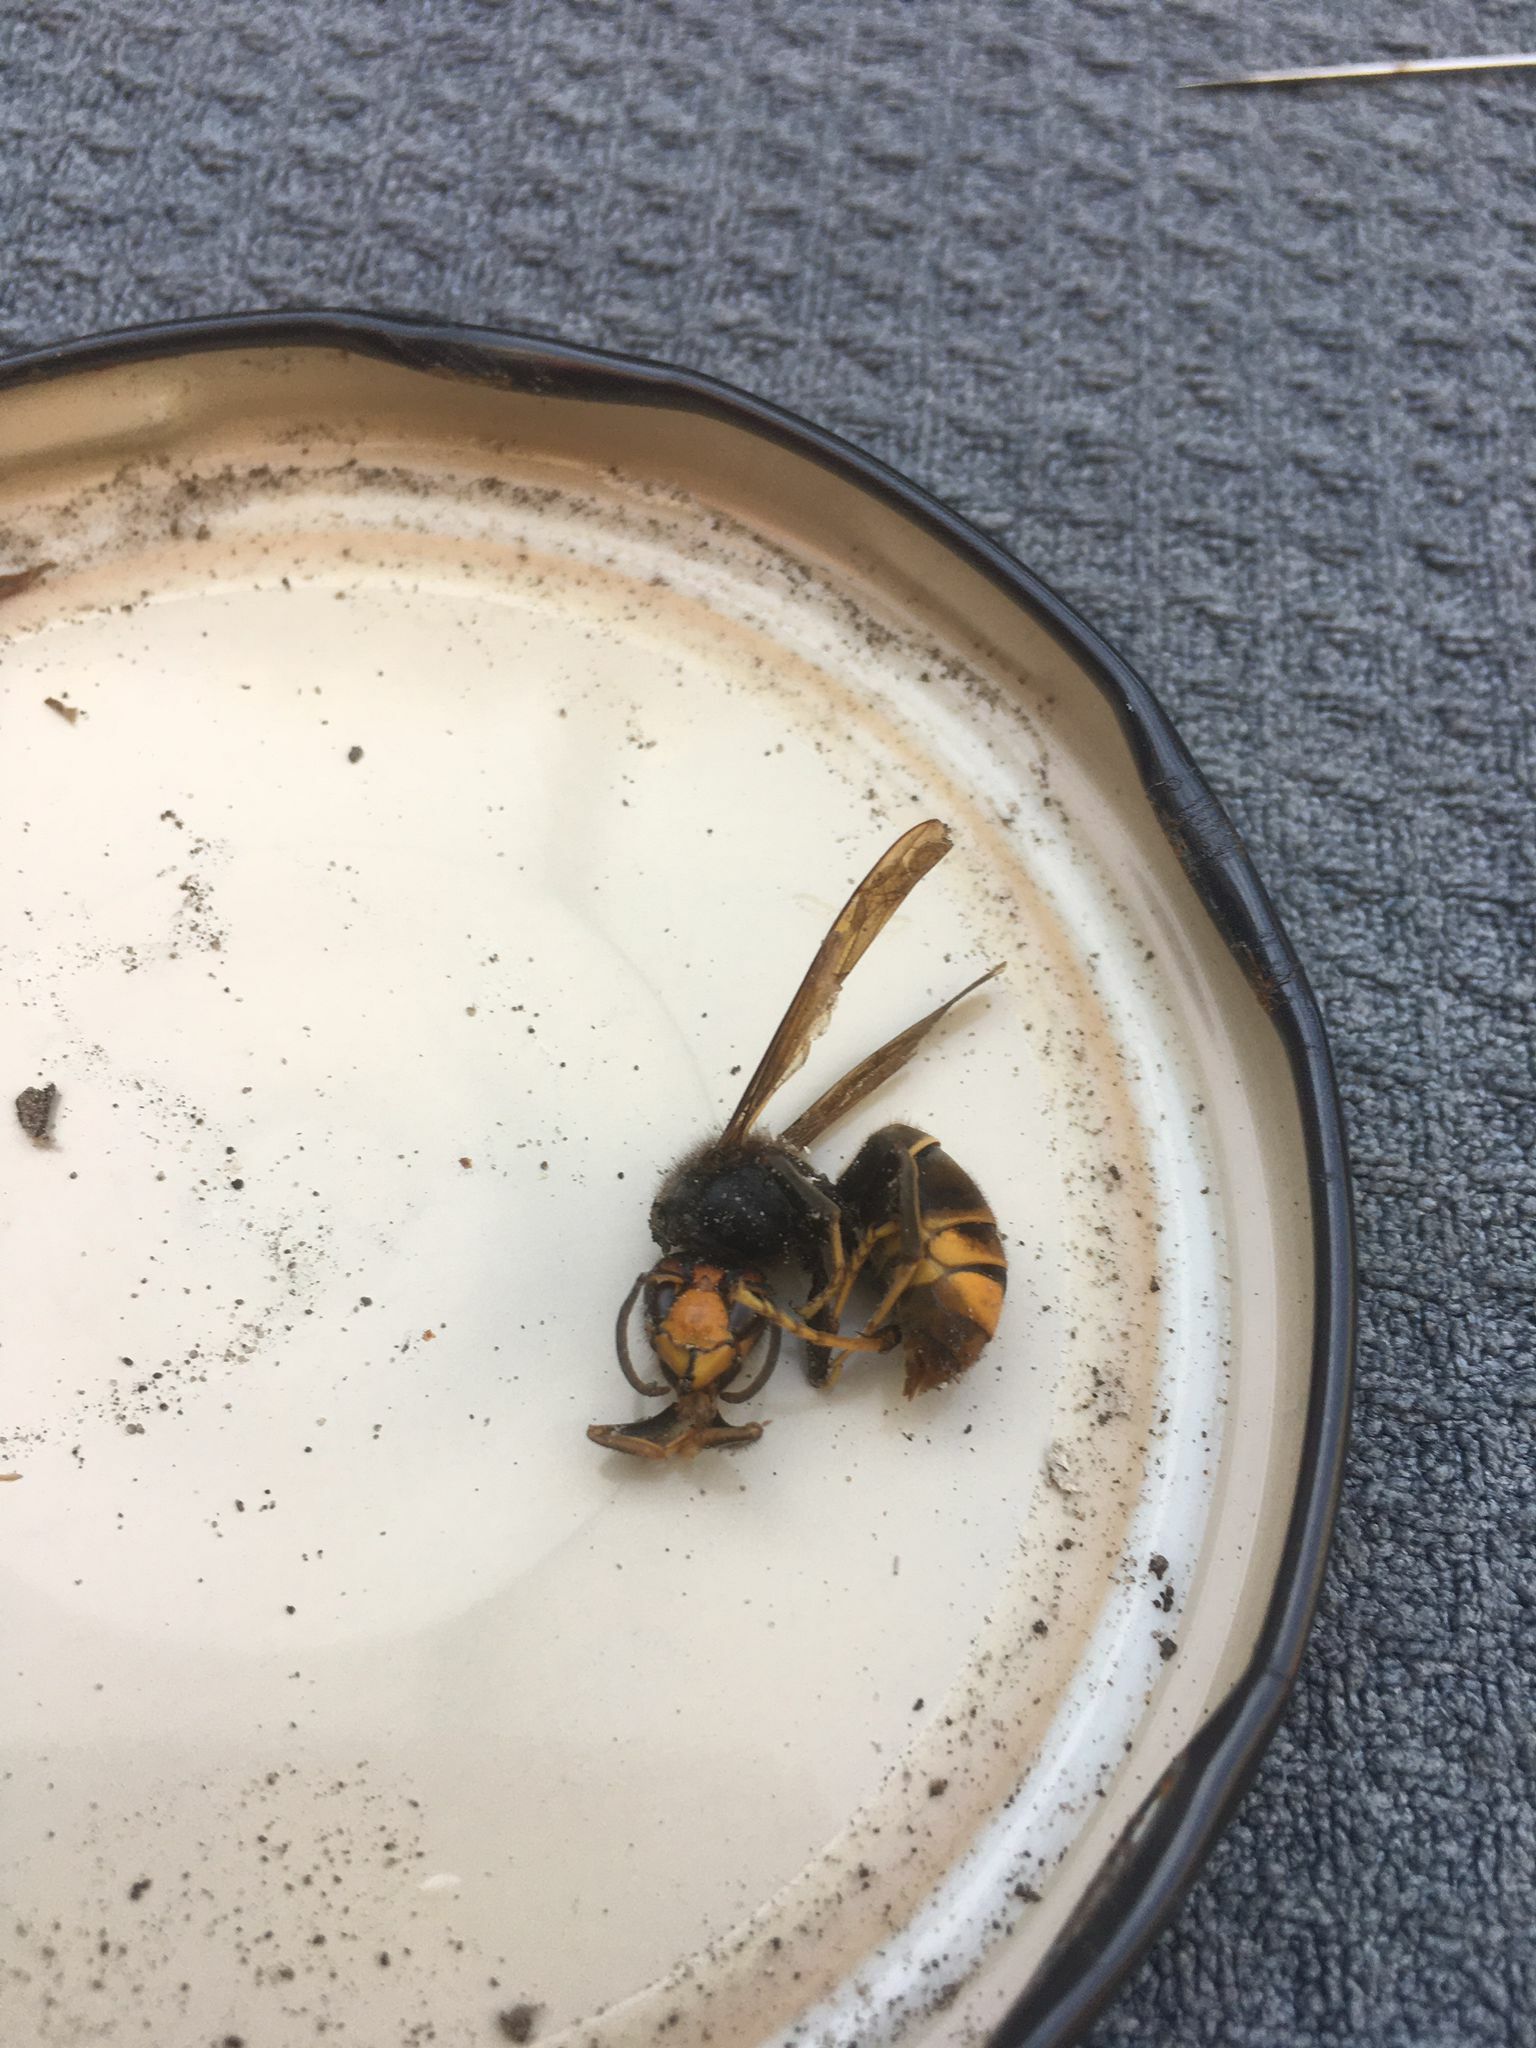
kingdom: Animalia
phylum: Arthropoda
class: Insecta
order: Hymenoptera
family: Vespidae
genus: Vespa
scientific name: Vespa velutina
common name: Asian hornet
